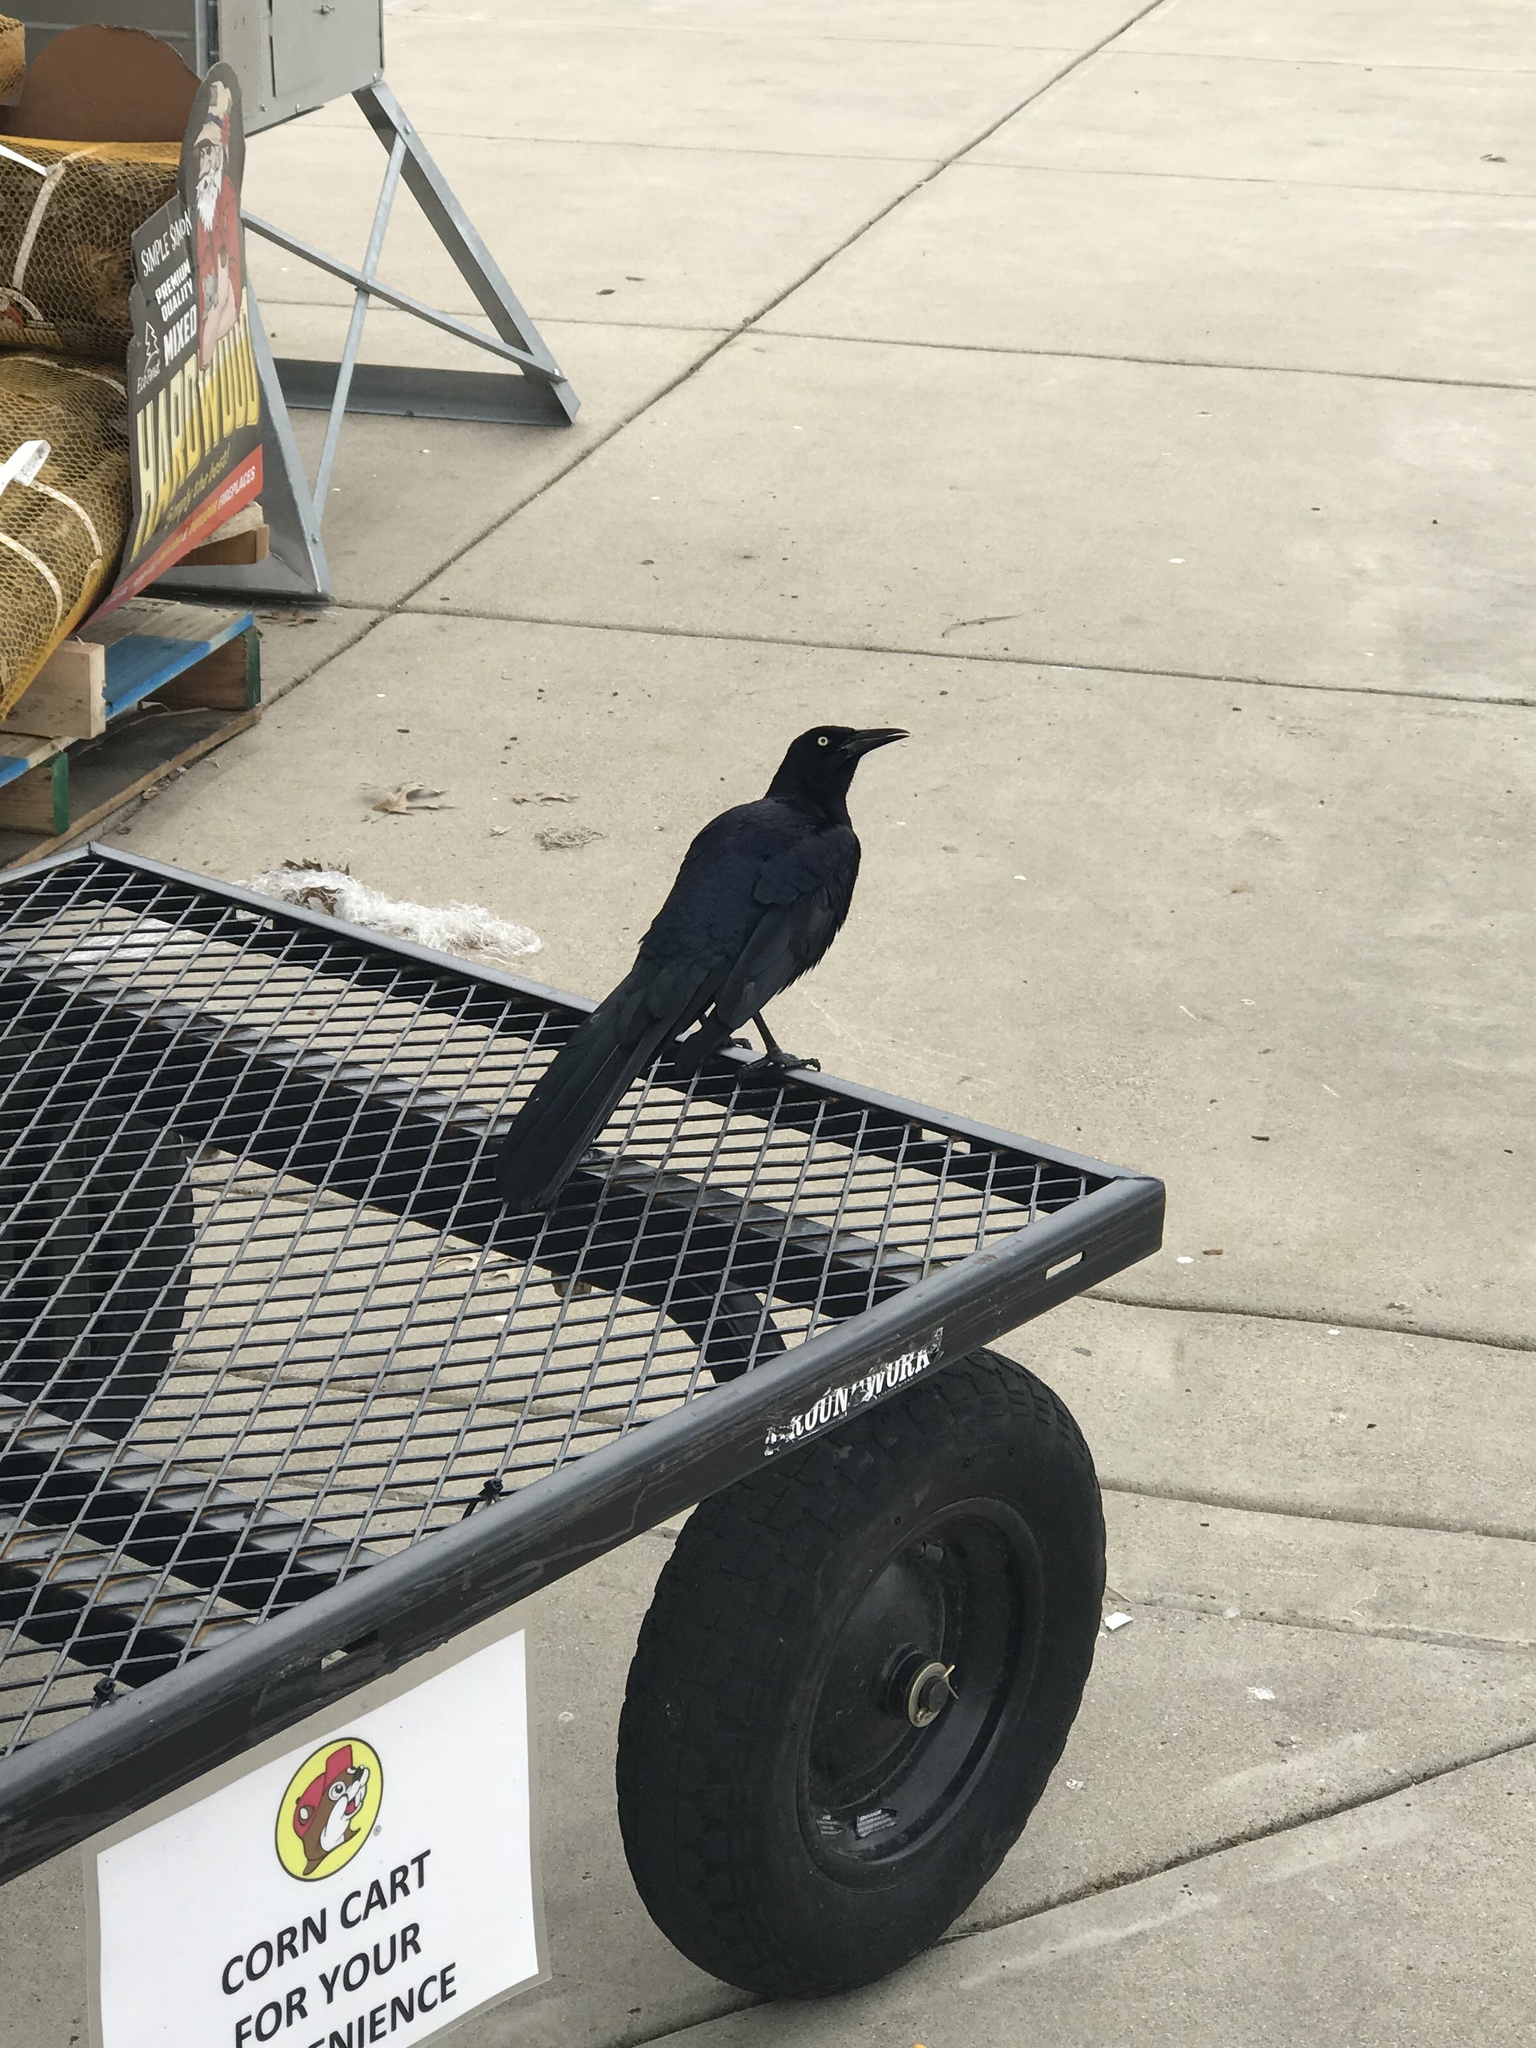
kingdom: Animalia
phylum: Chordata
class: Aves
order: Passeriformes
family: Icteridae
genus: Quiscalus
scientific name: Quiscalus mexicanus
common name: Great-tailed grackle
